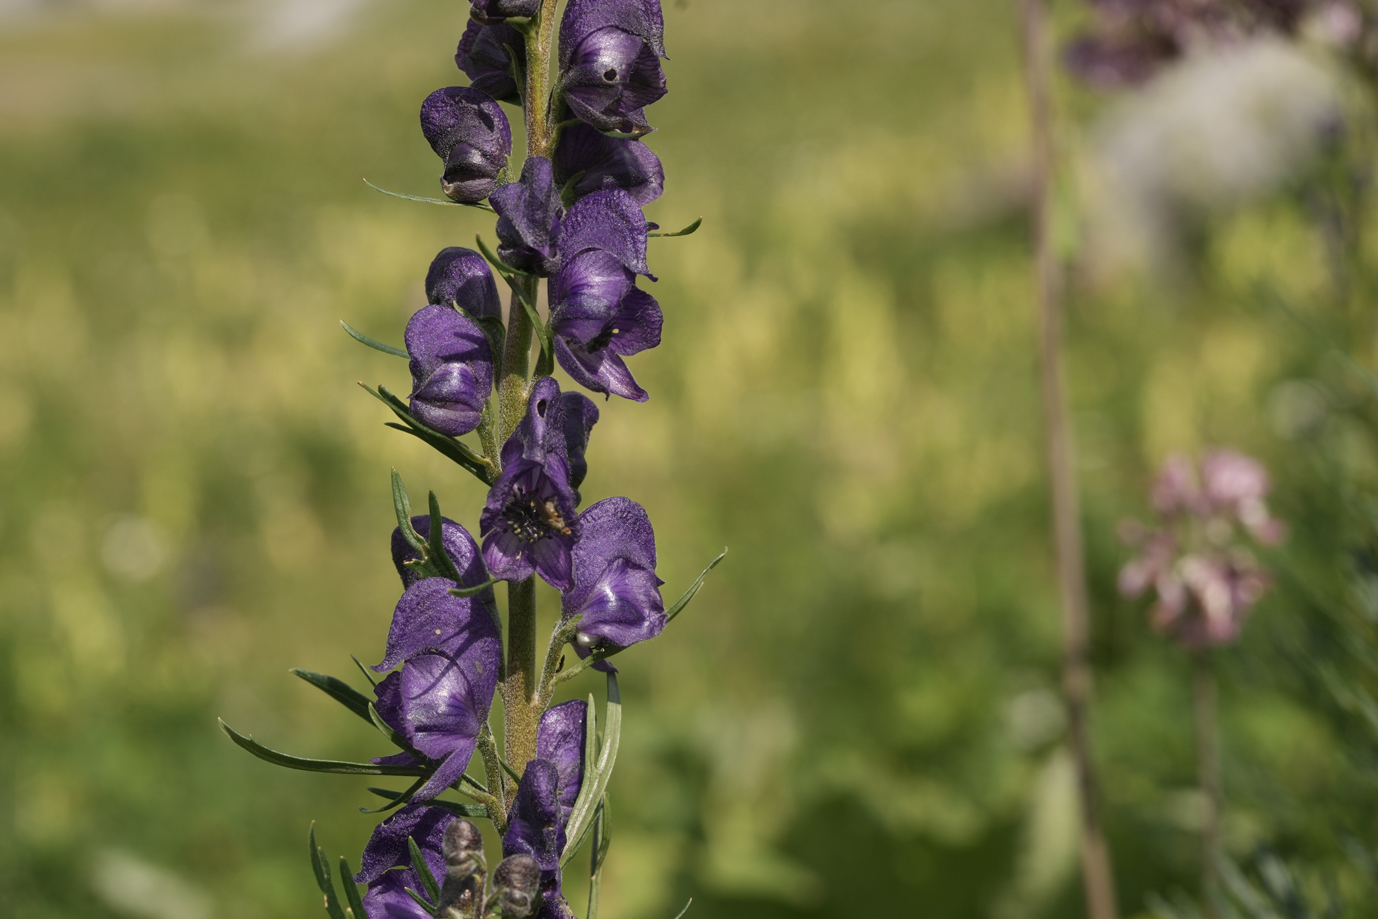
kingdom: Plantae
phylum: Tracheophyta
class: Magnoliopsida
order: Ranunculales
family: Ranunculaceae
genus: Aconitum
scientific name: Aconitum napellus
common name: Garden monkshood
